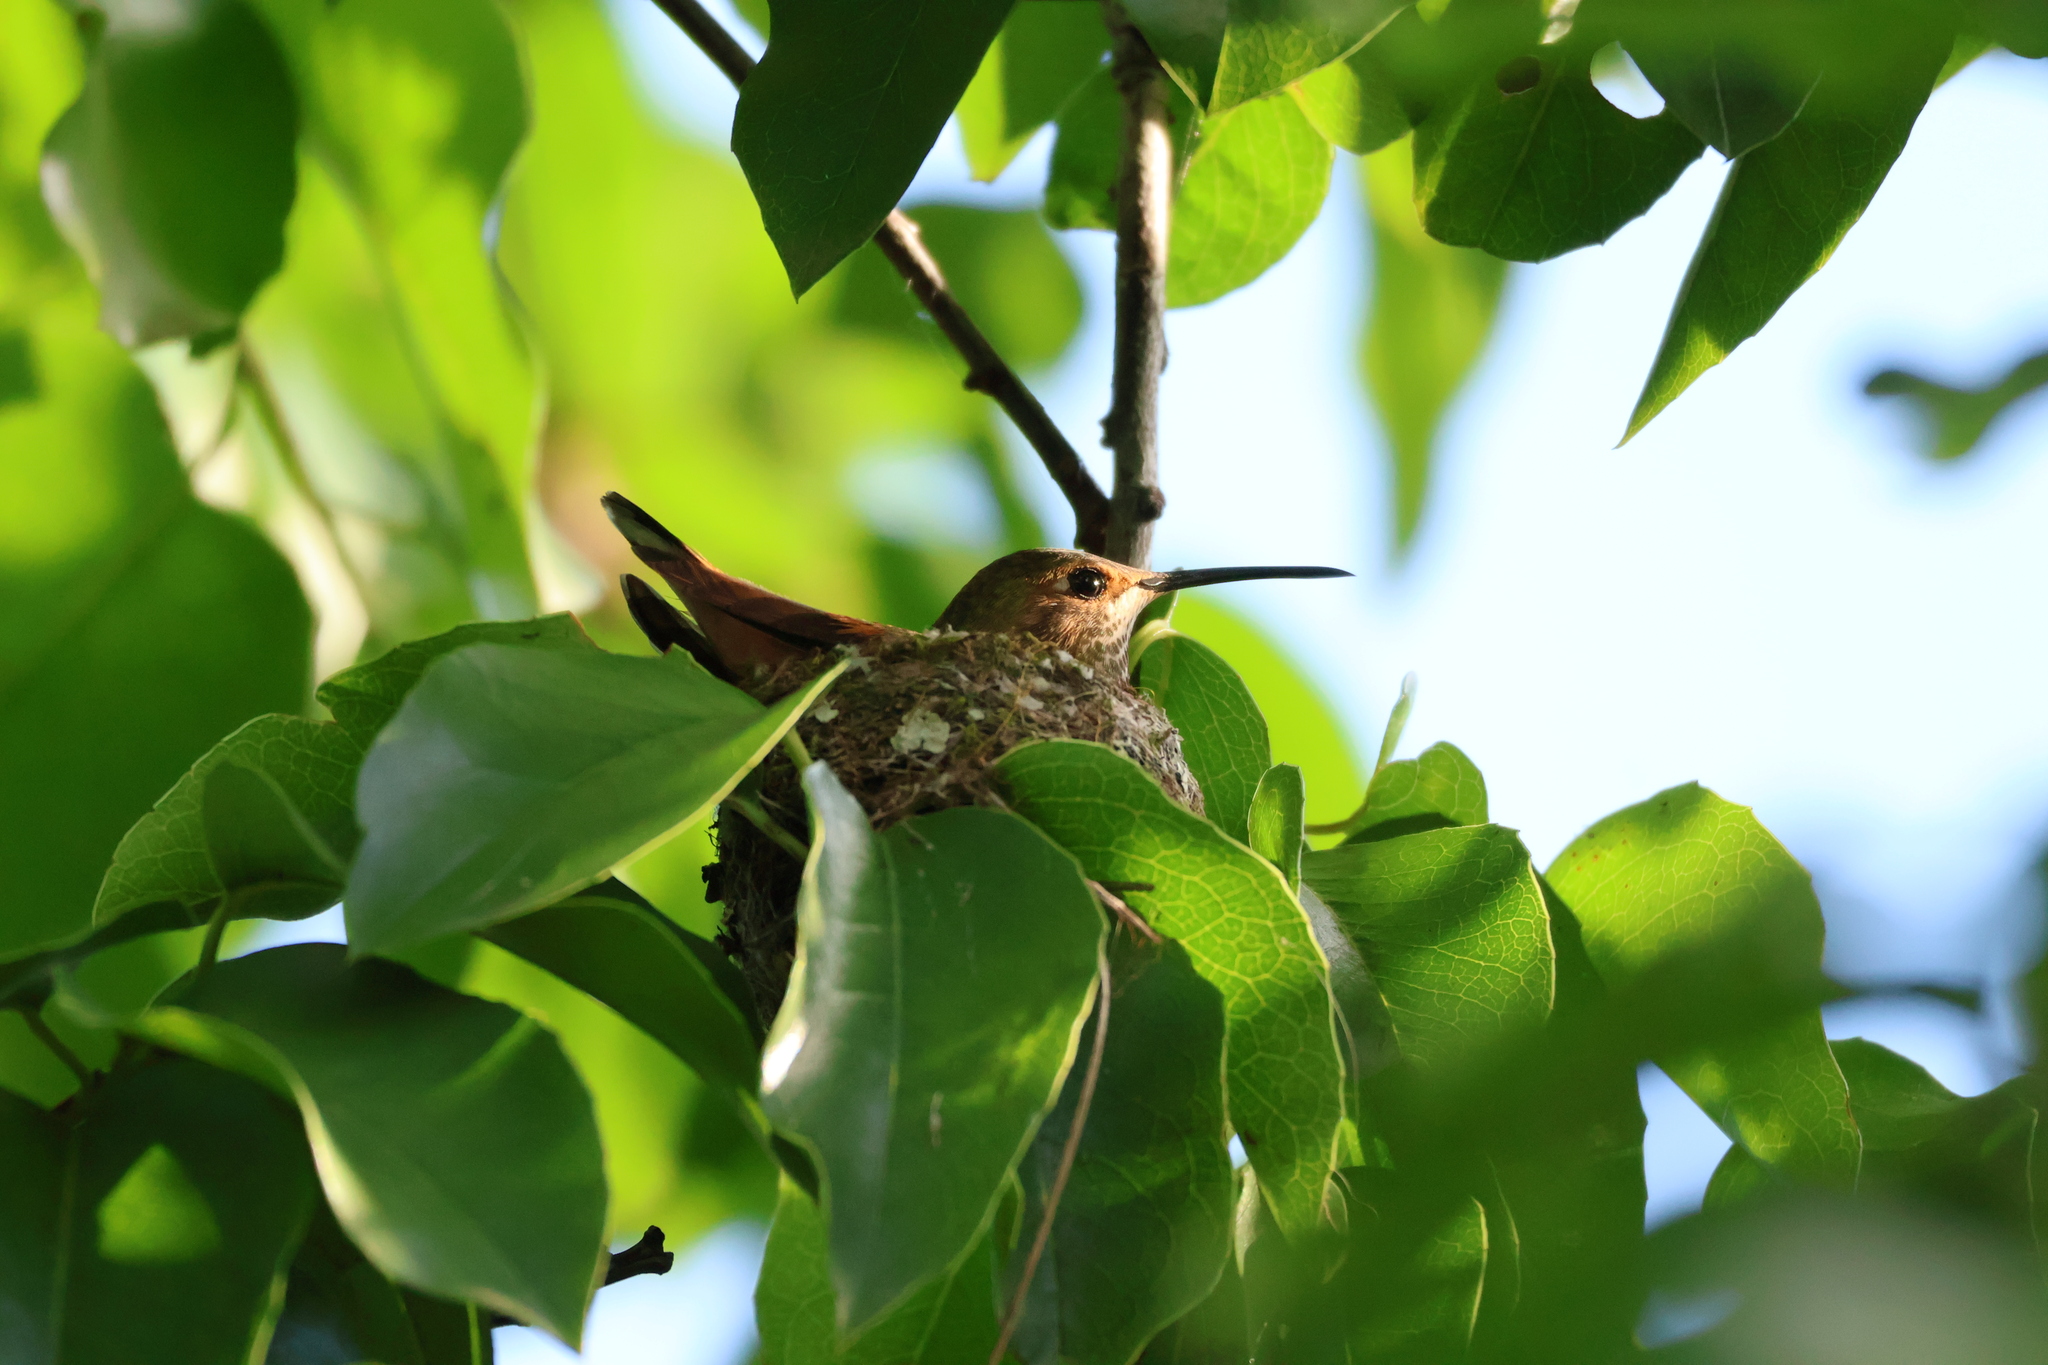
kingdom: Animalia
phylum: Chordata
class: Aves
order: Apodiformes
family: Trochilidae
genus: Selasphorus
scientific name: Selasphorus sasin
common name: Allen's hummingbird
